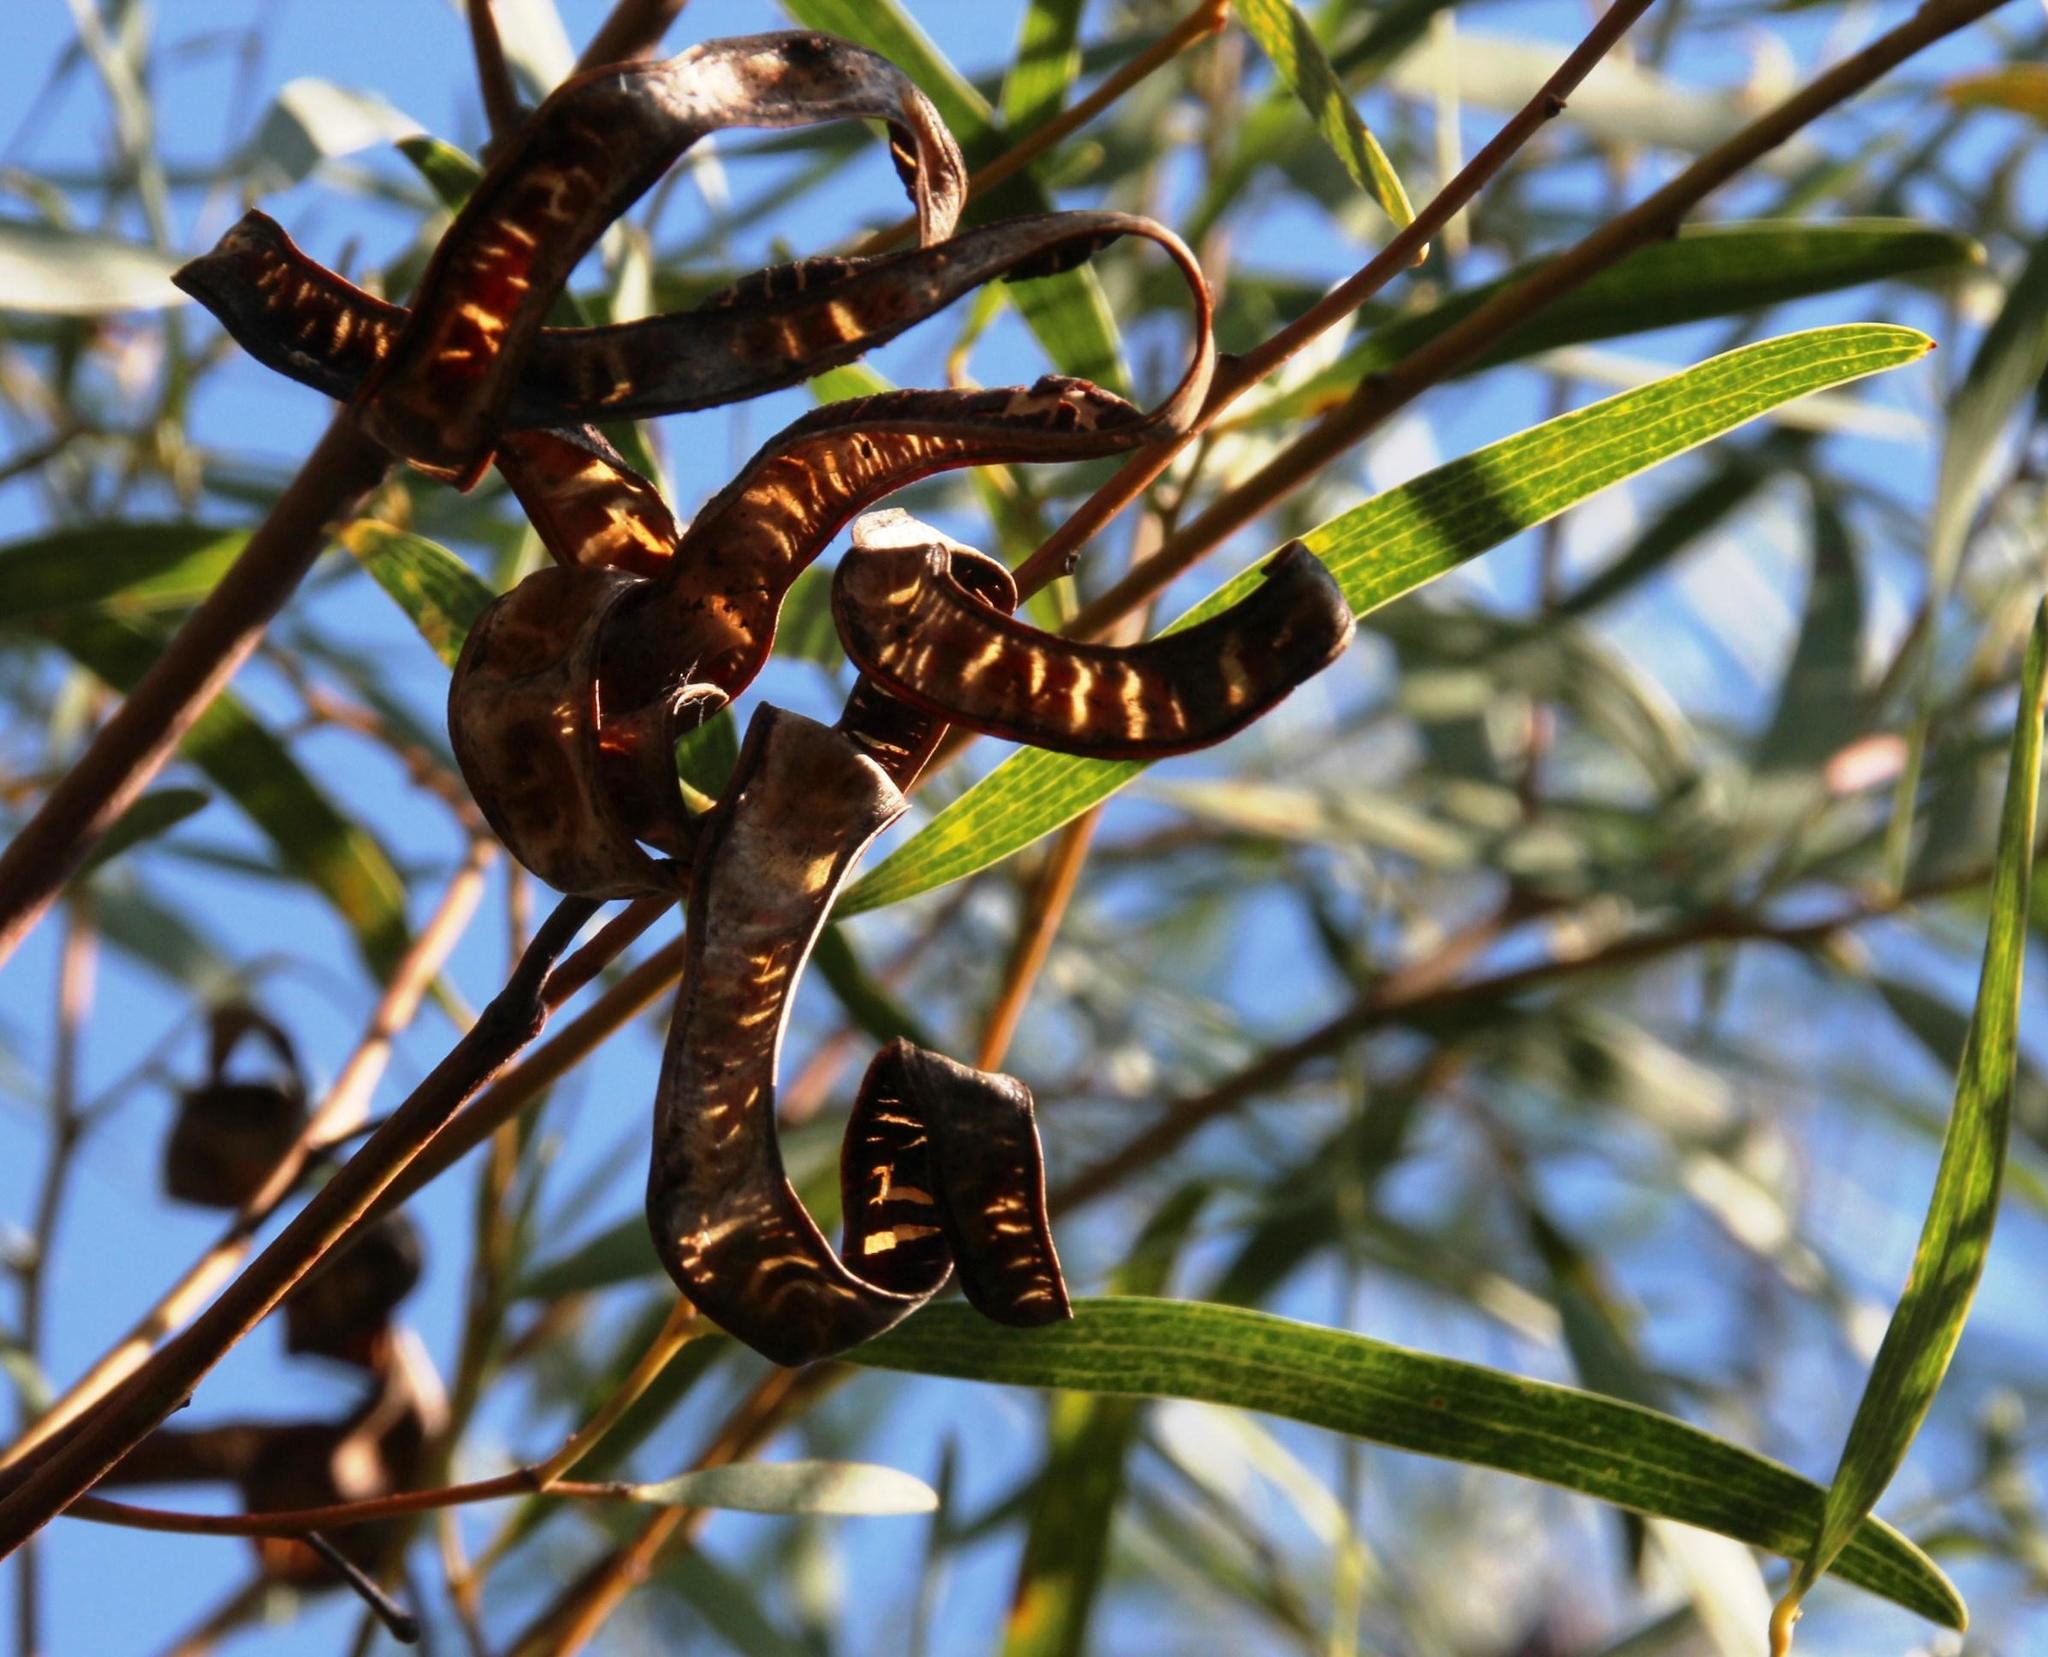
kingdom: Plantae
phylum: Tracheophyta
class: Magnoliopsida
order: Fabales
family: Fabaceae
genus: Acacia
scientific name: Acacia cyclops
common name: Coastal wattle
